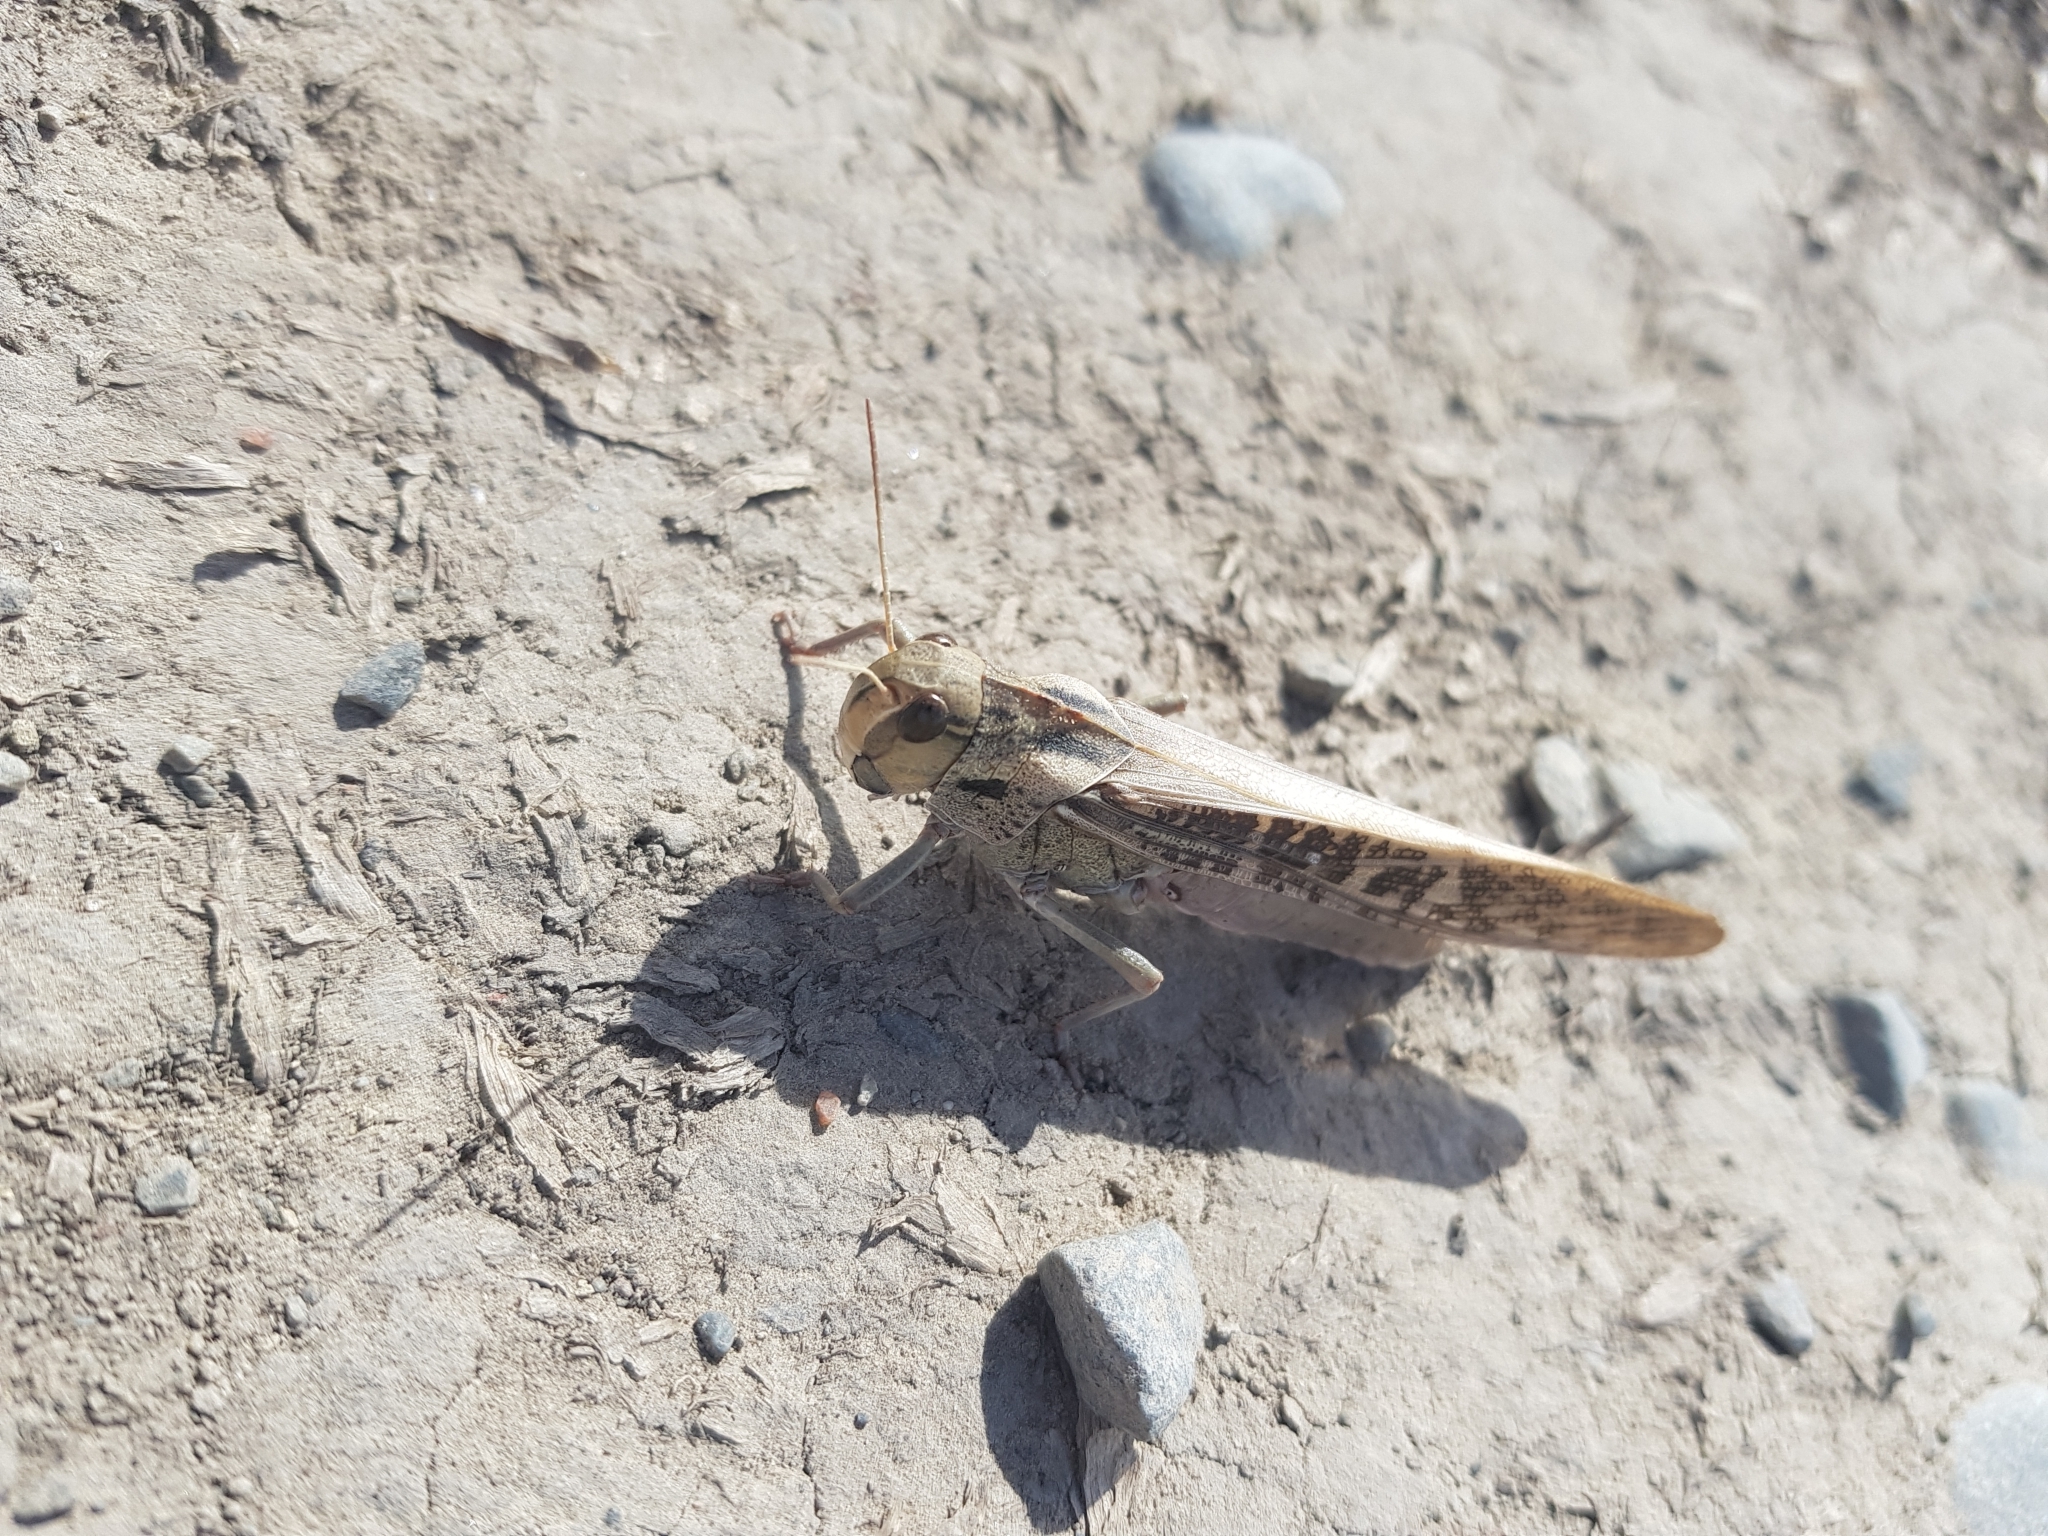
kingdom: Animalia
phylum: Arthropoda
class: Insecta
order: Orthoptera
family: Acrididae
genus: Locusta
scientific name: Locusta migratoria
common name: Migratory locust
